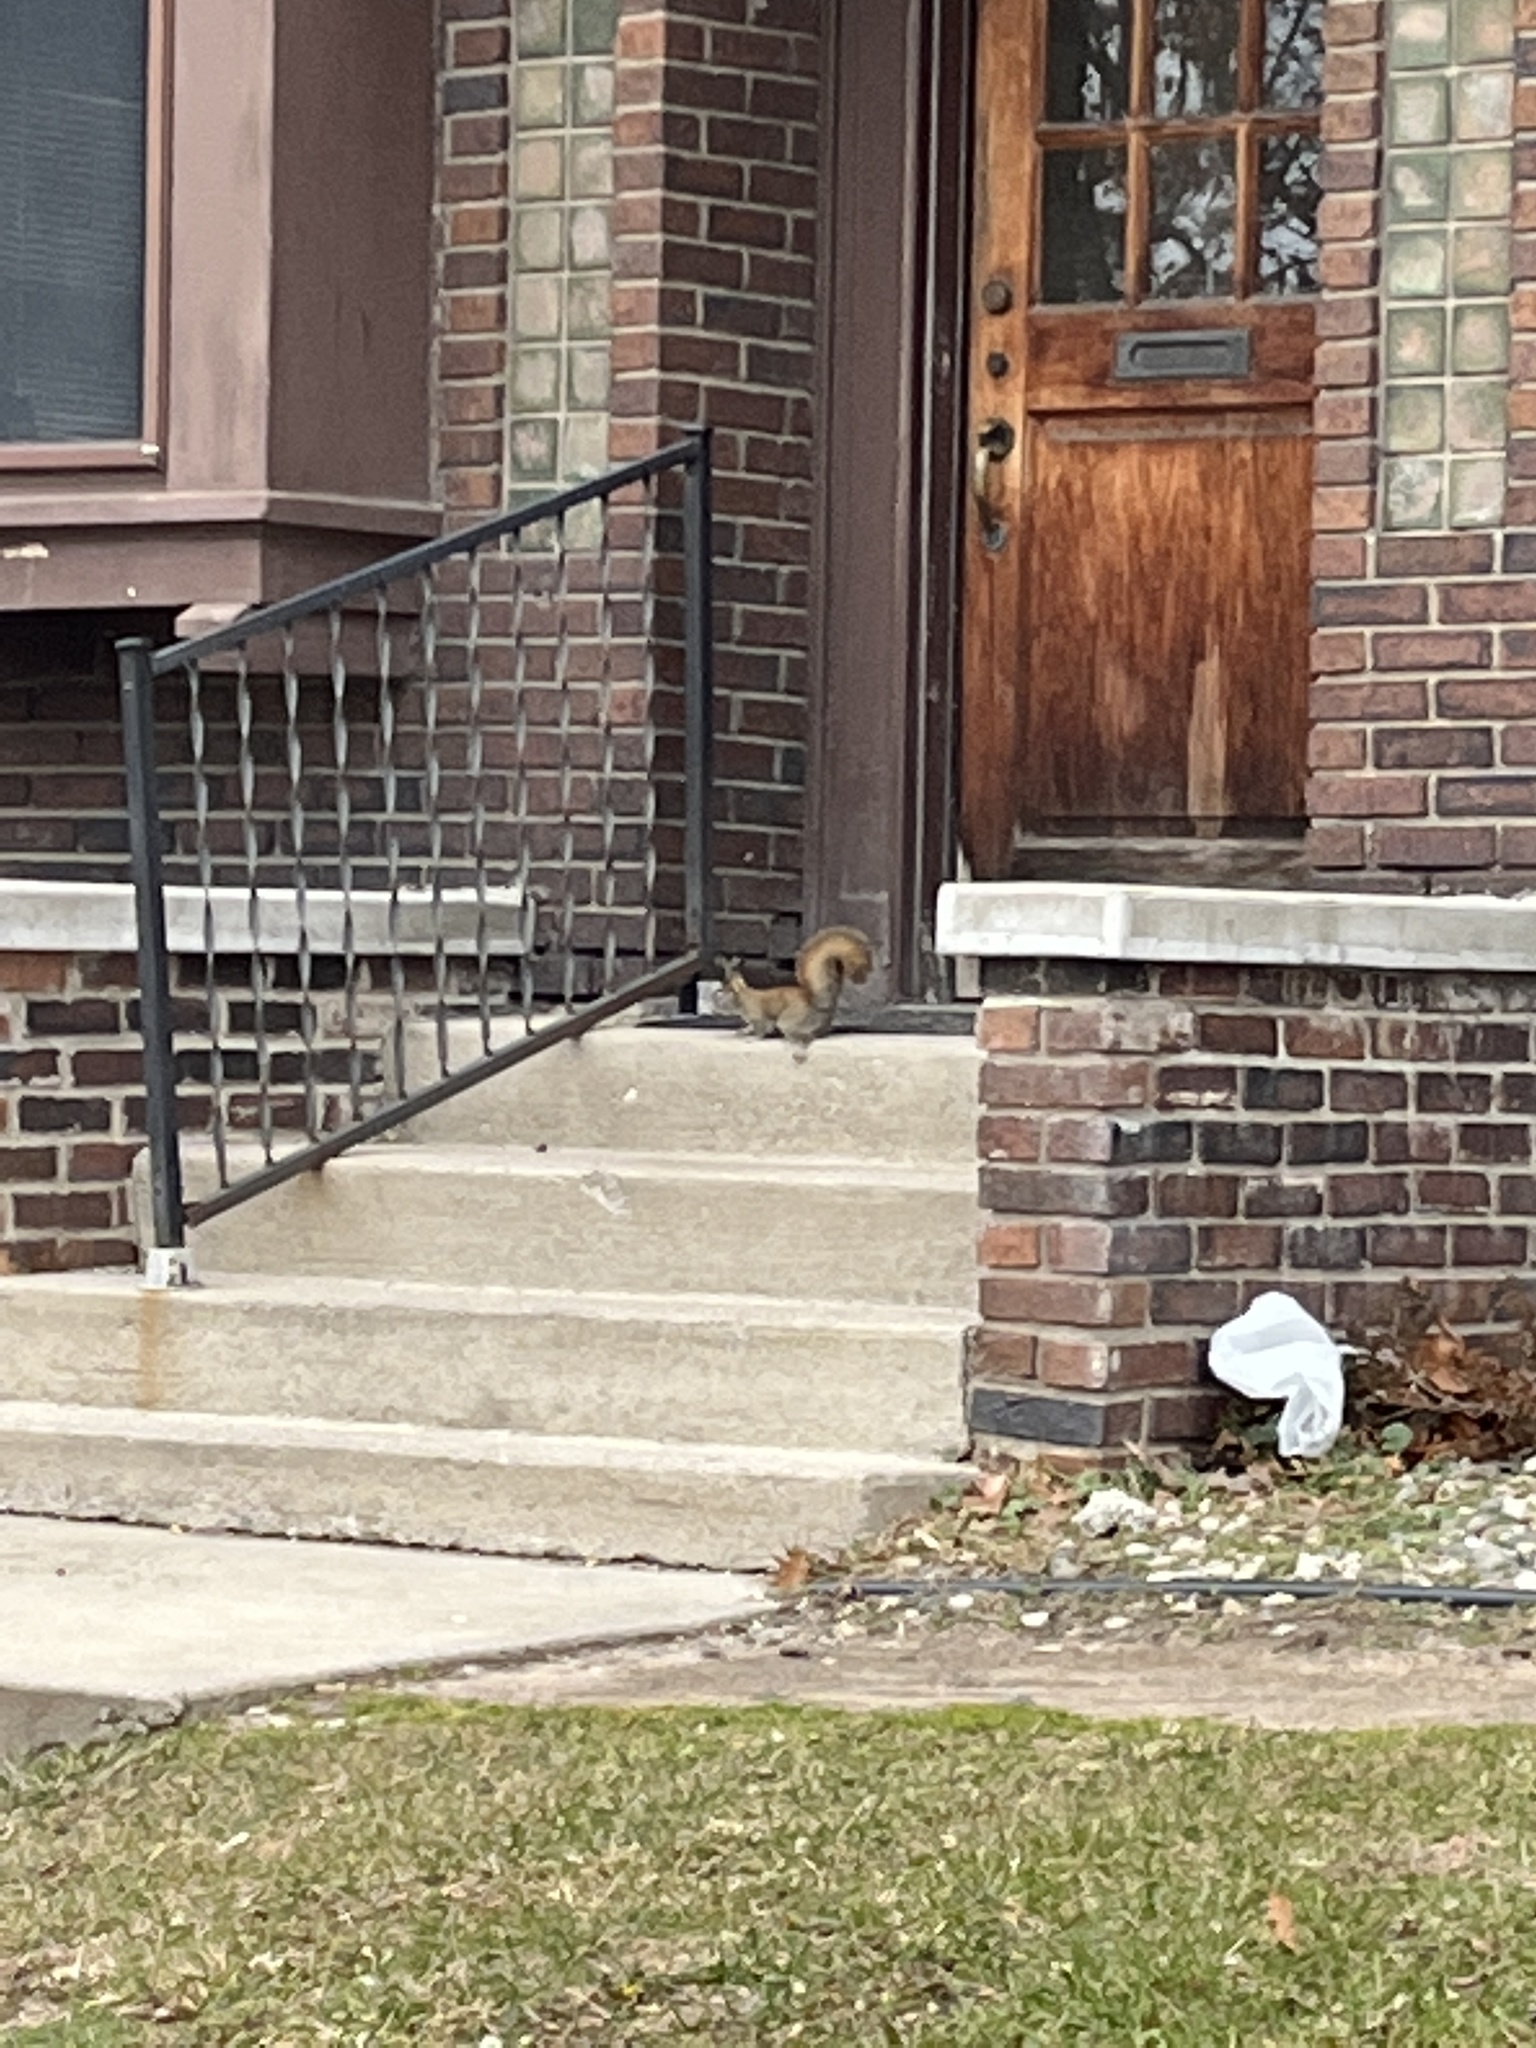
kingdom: Animalia
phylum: Chordata
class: Mammalia
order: Rodentia
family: Sciuridae
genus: Tamiasciurus
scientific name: Tamiasciurus hudsonicus
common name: Red squirrel
